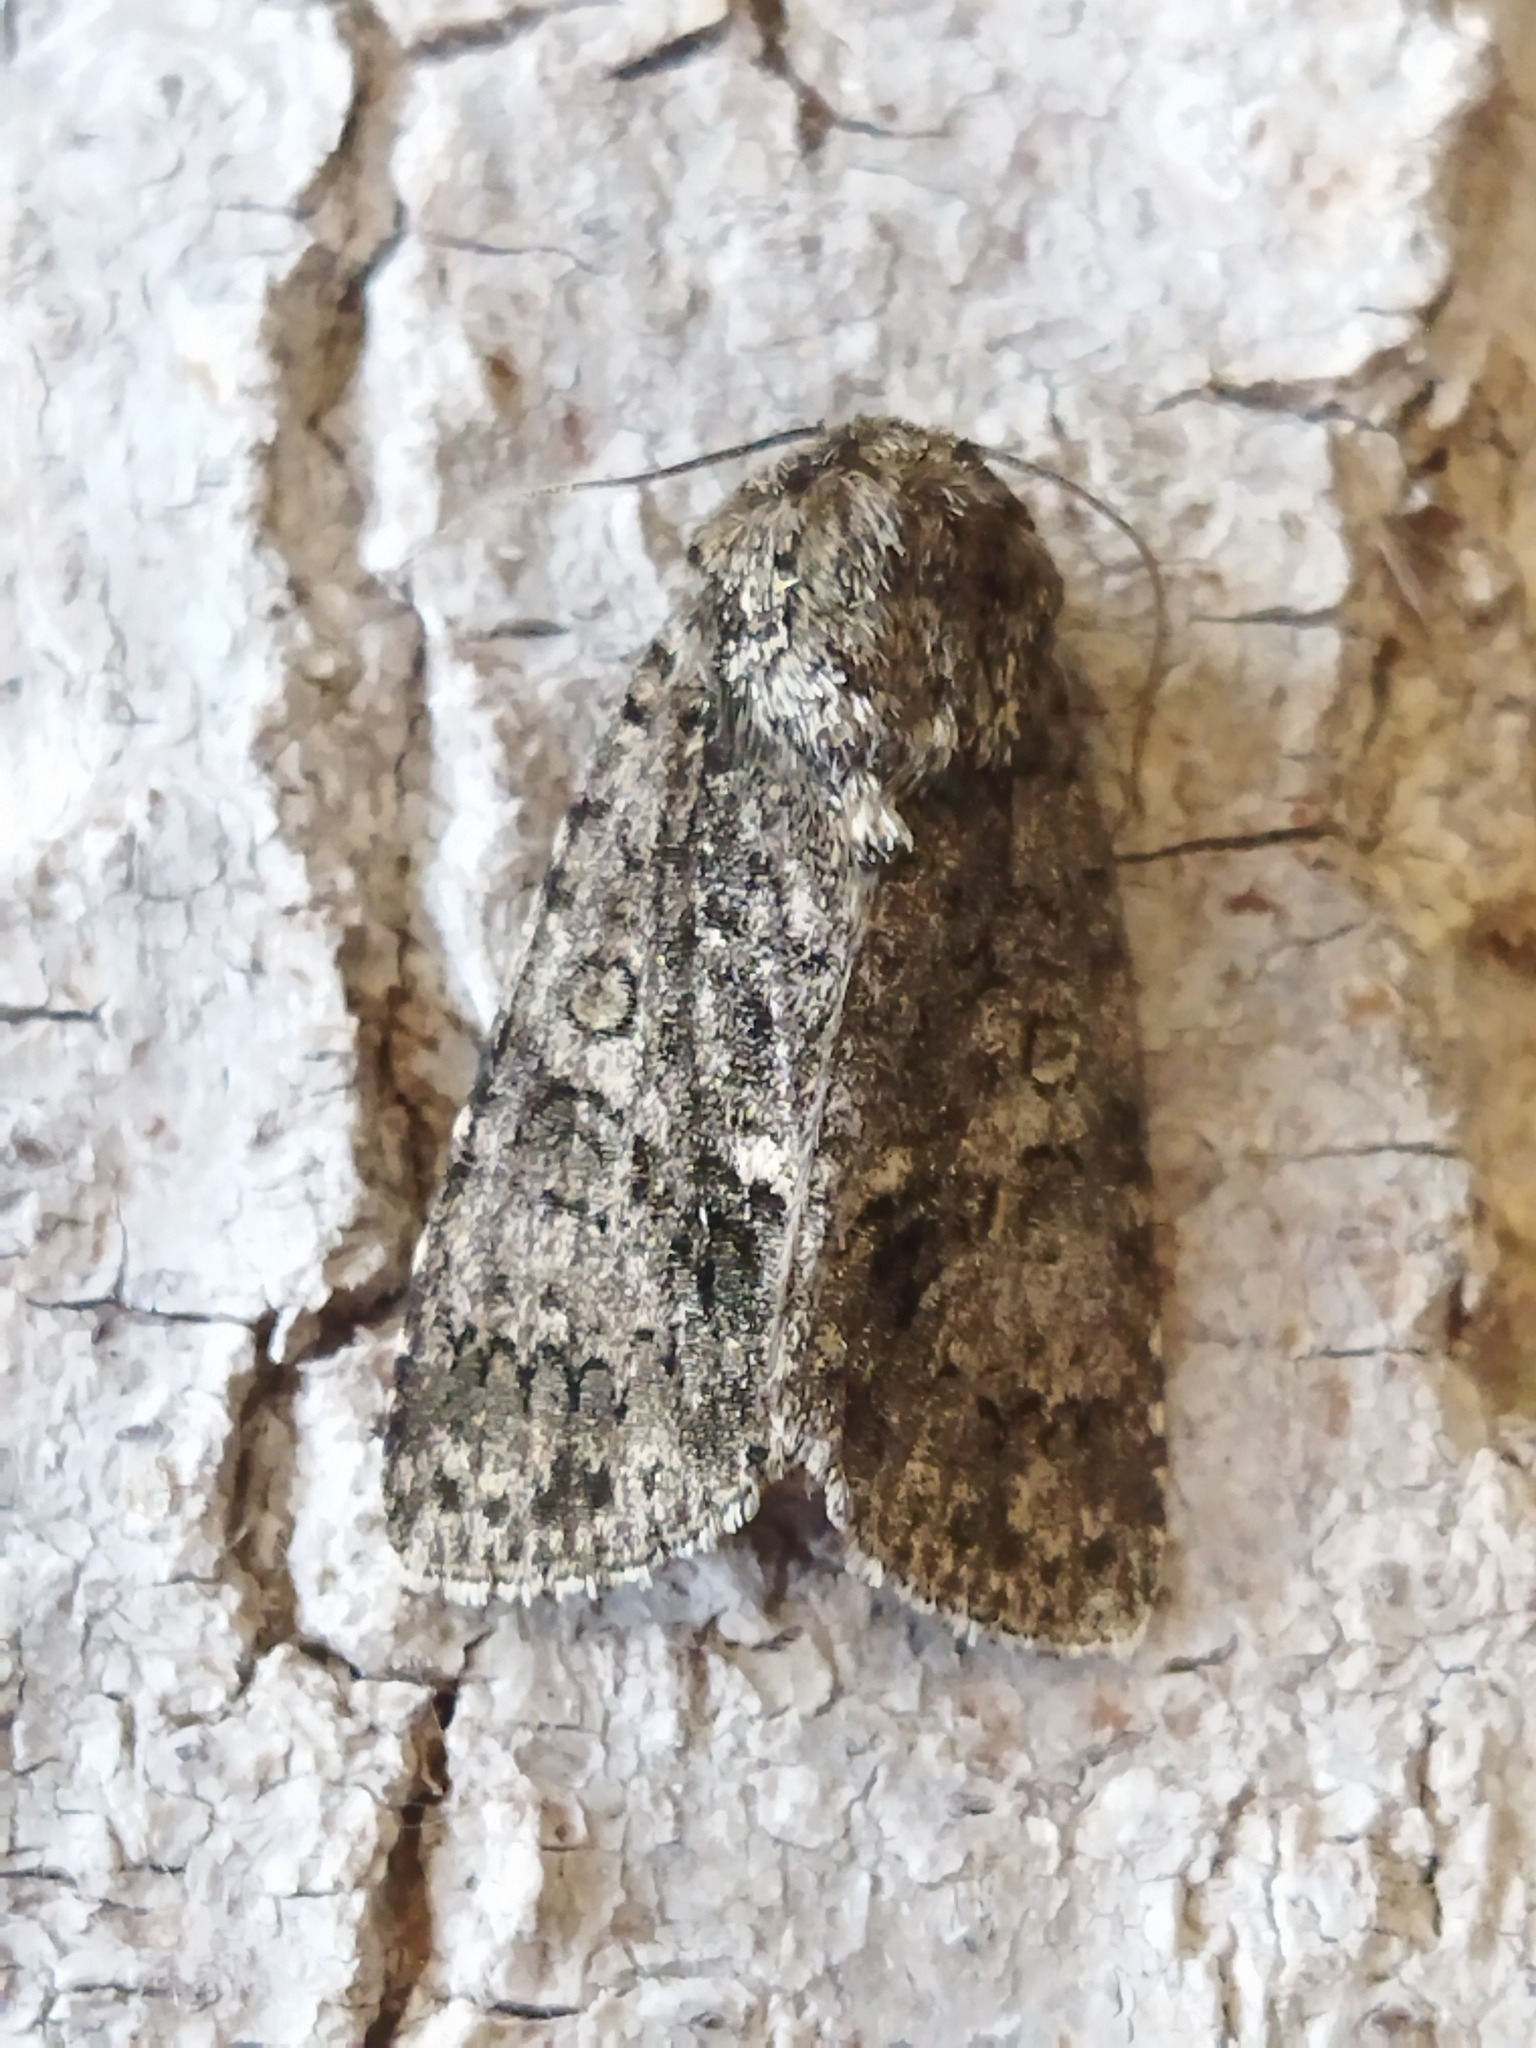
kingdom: Animalia
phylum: Arthropoda
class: Insecta
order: Lepidoptera
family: Noctuidae
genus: Acronicta
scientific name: Acronicta rumicis
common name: Knot grass
